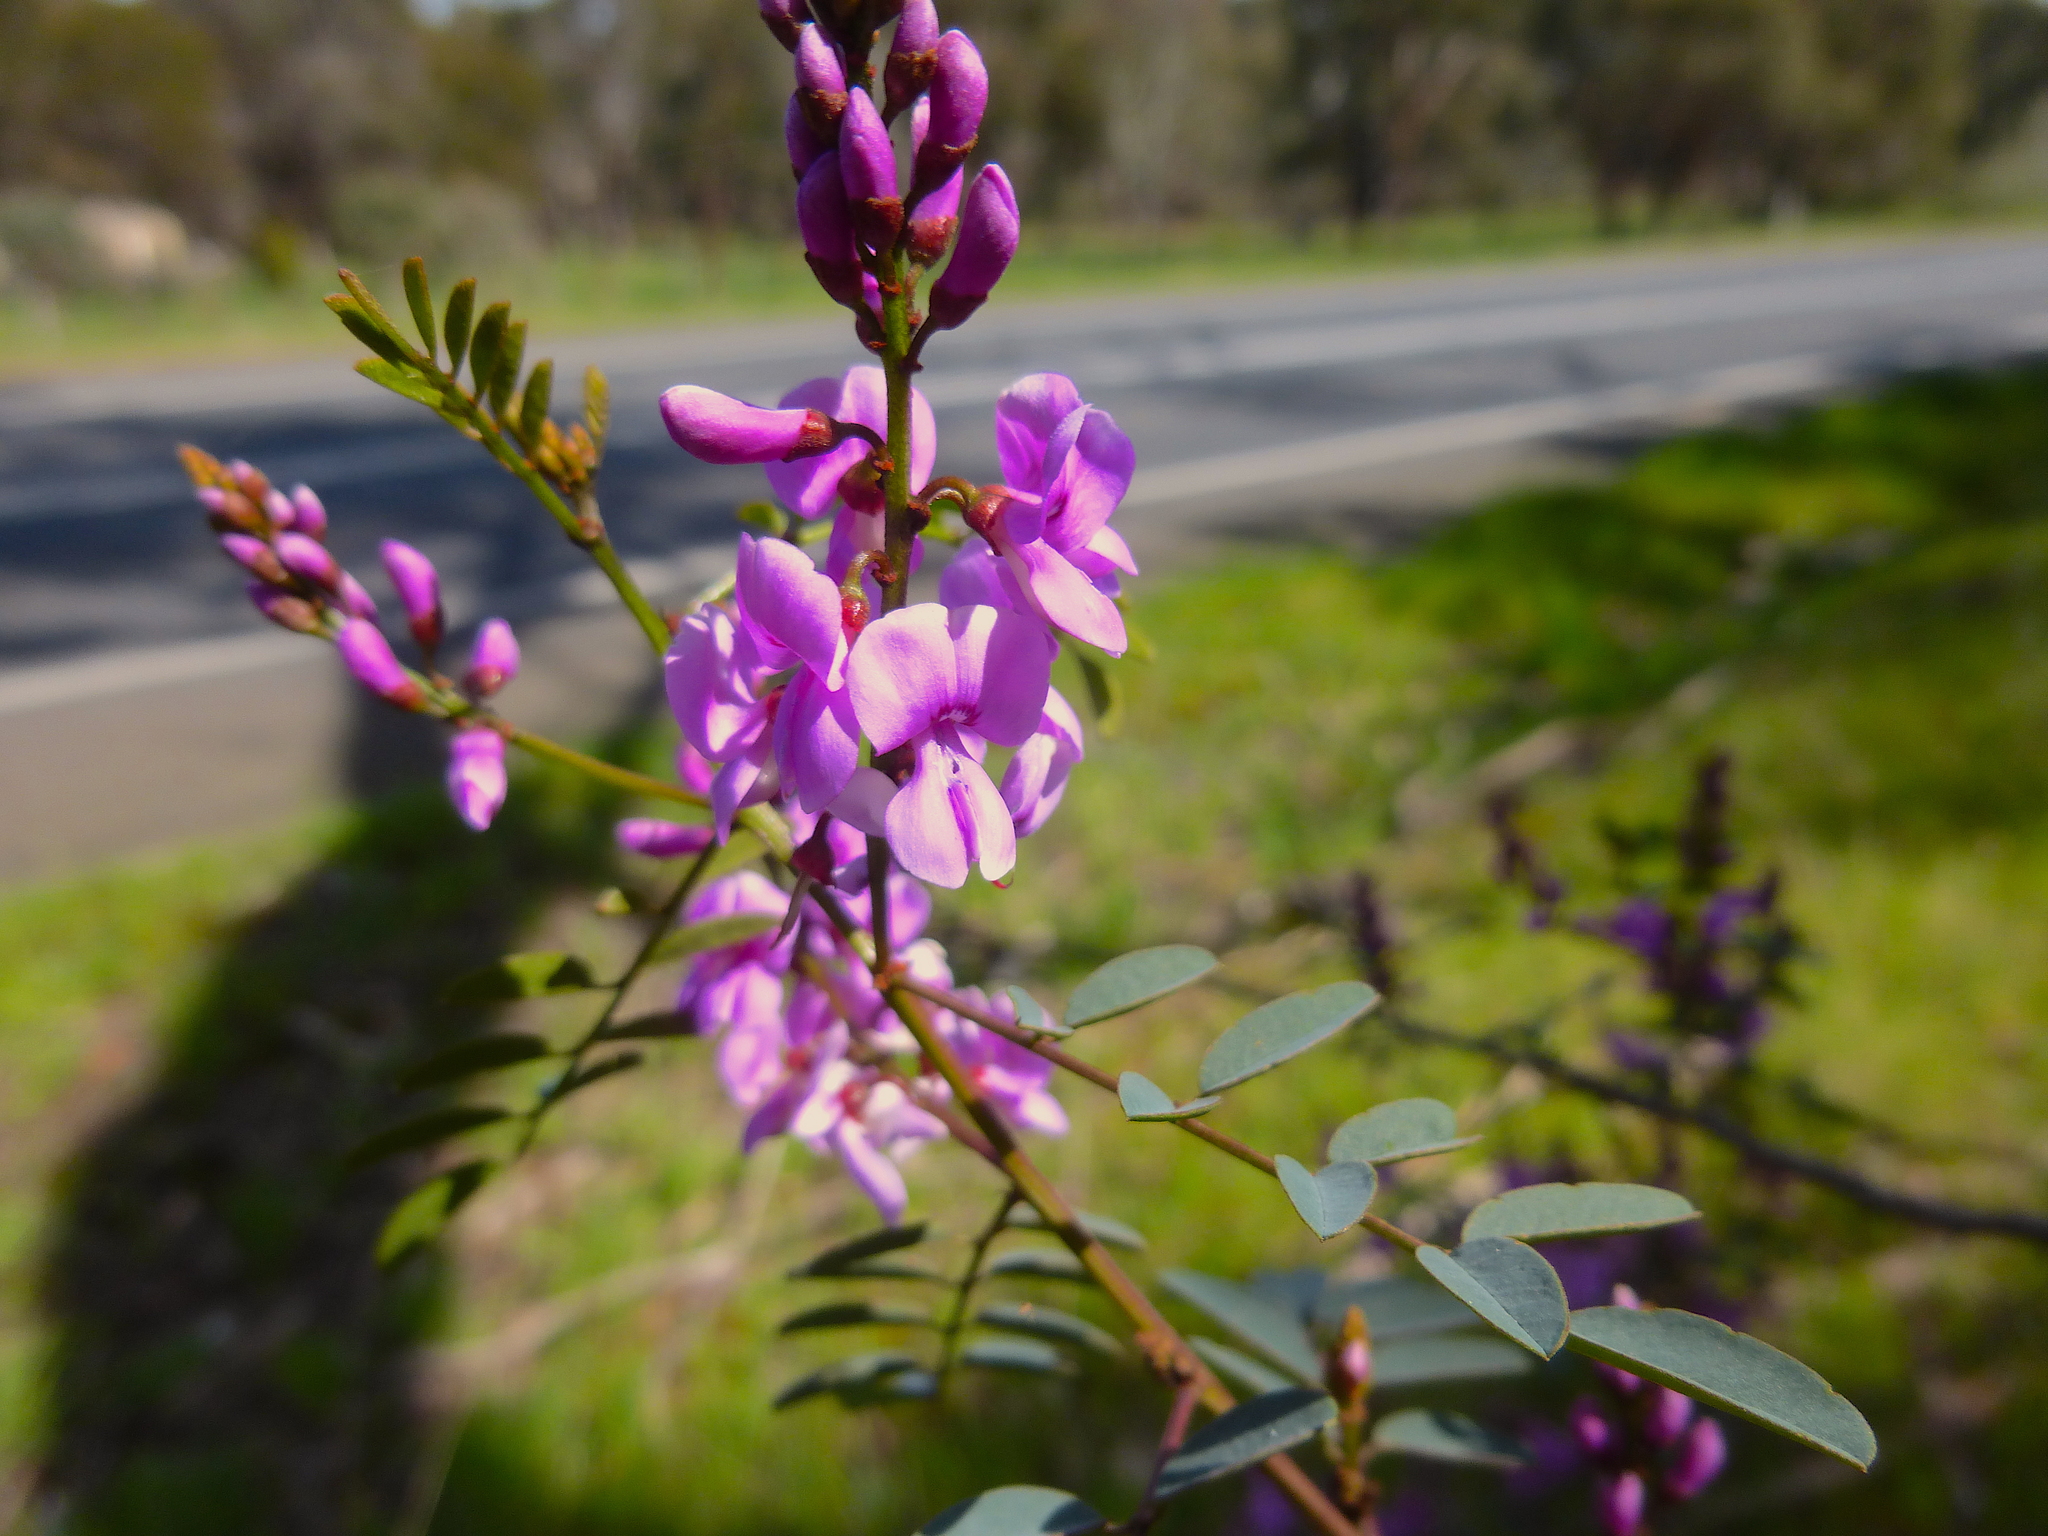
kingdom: Plantae
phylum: Tracheophyta
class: Magnoliopsida
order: Fabales
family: Fabaceae
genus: Indigofera
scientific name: Indigofera australis
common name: Australian indigo
